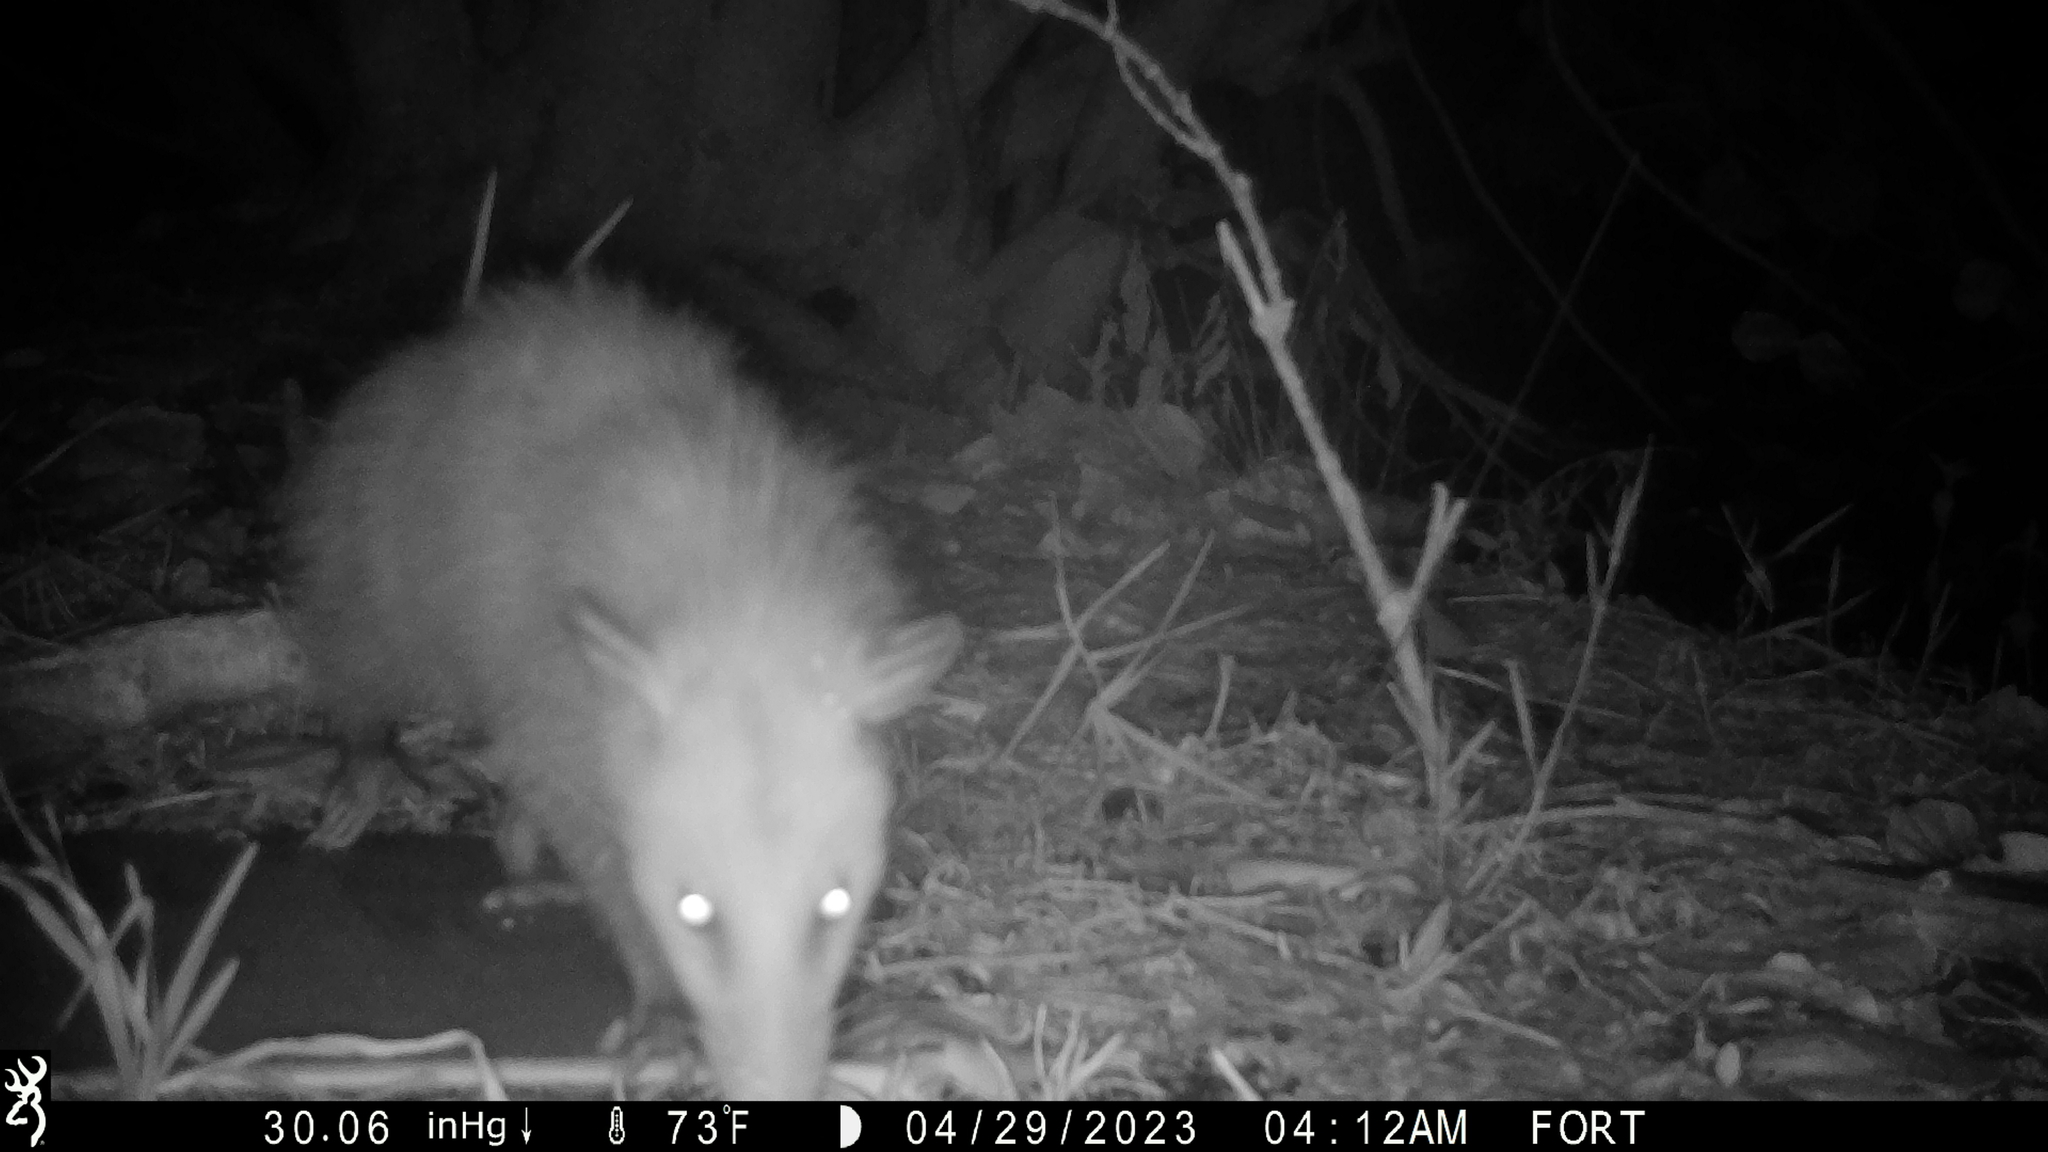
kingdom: Animalia
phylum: Chordata
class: Mammalia
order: Didelphimorphia
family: Didelphidae
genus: Didelphis
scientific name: Didelphis virginiana
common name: Virginia opossum
